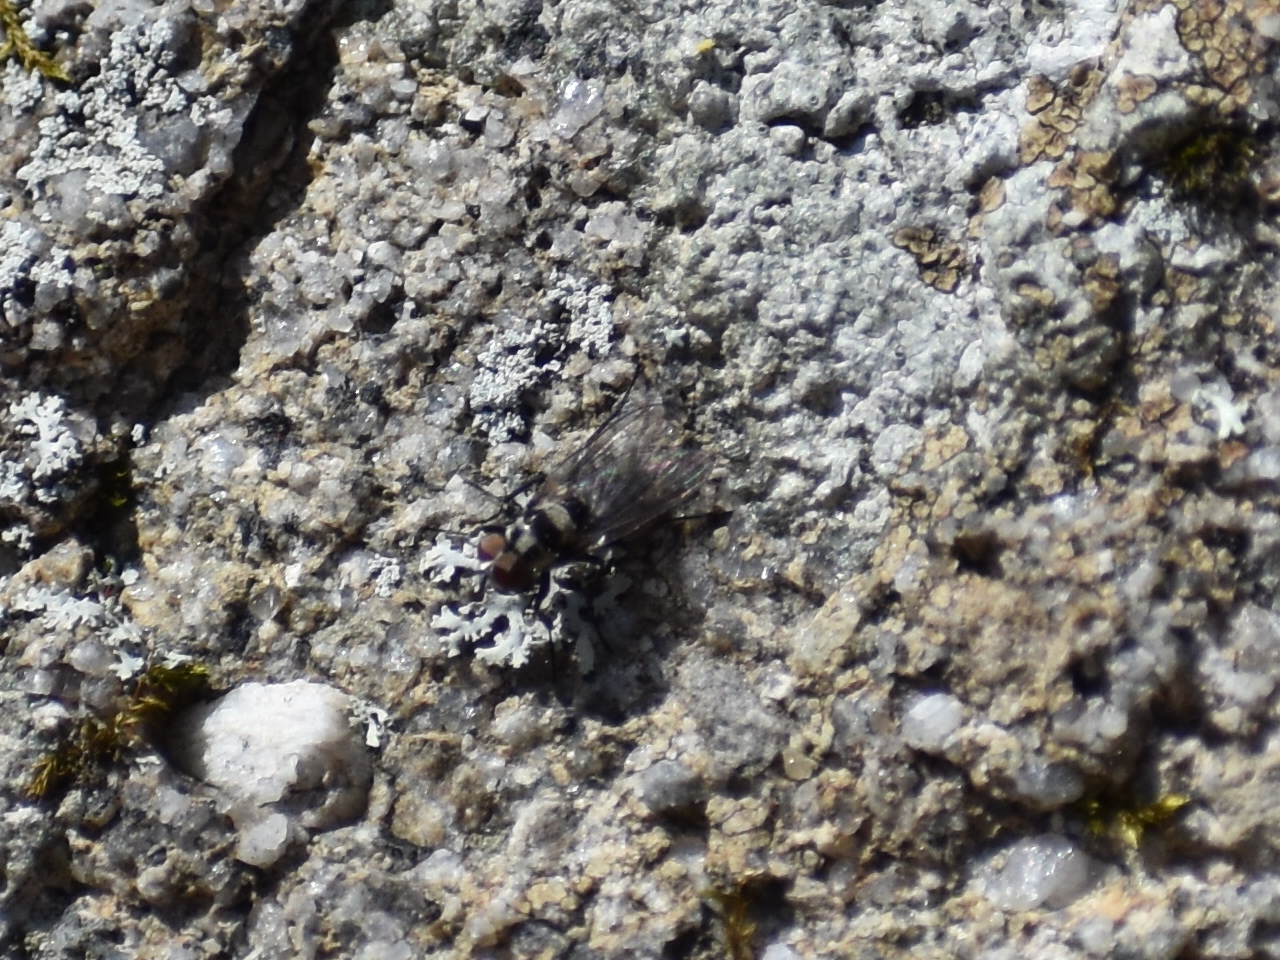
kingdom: Animalia
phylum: Arthropoda
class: Insecta
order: Diptera
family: Anthomyiidae
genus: Anthomyia
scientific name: Anthomyia oculifera
